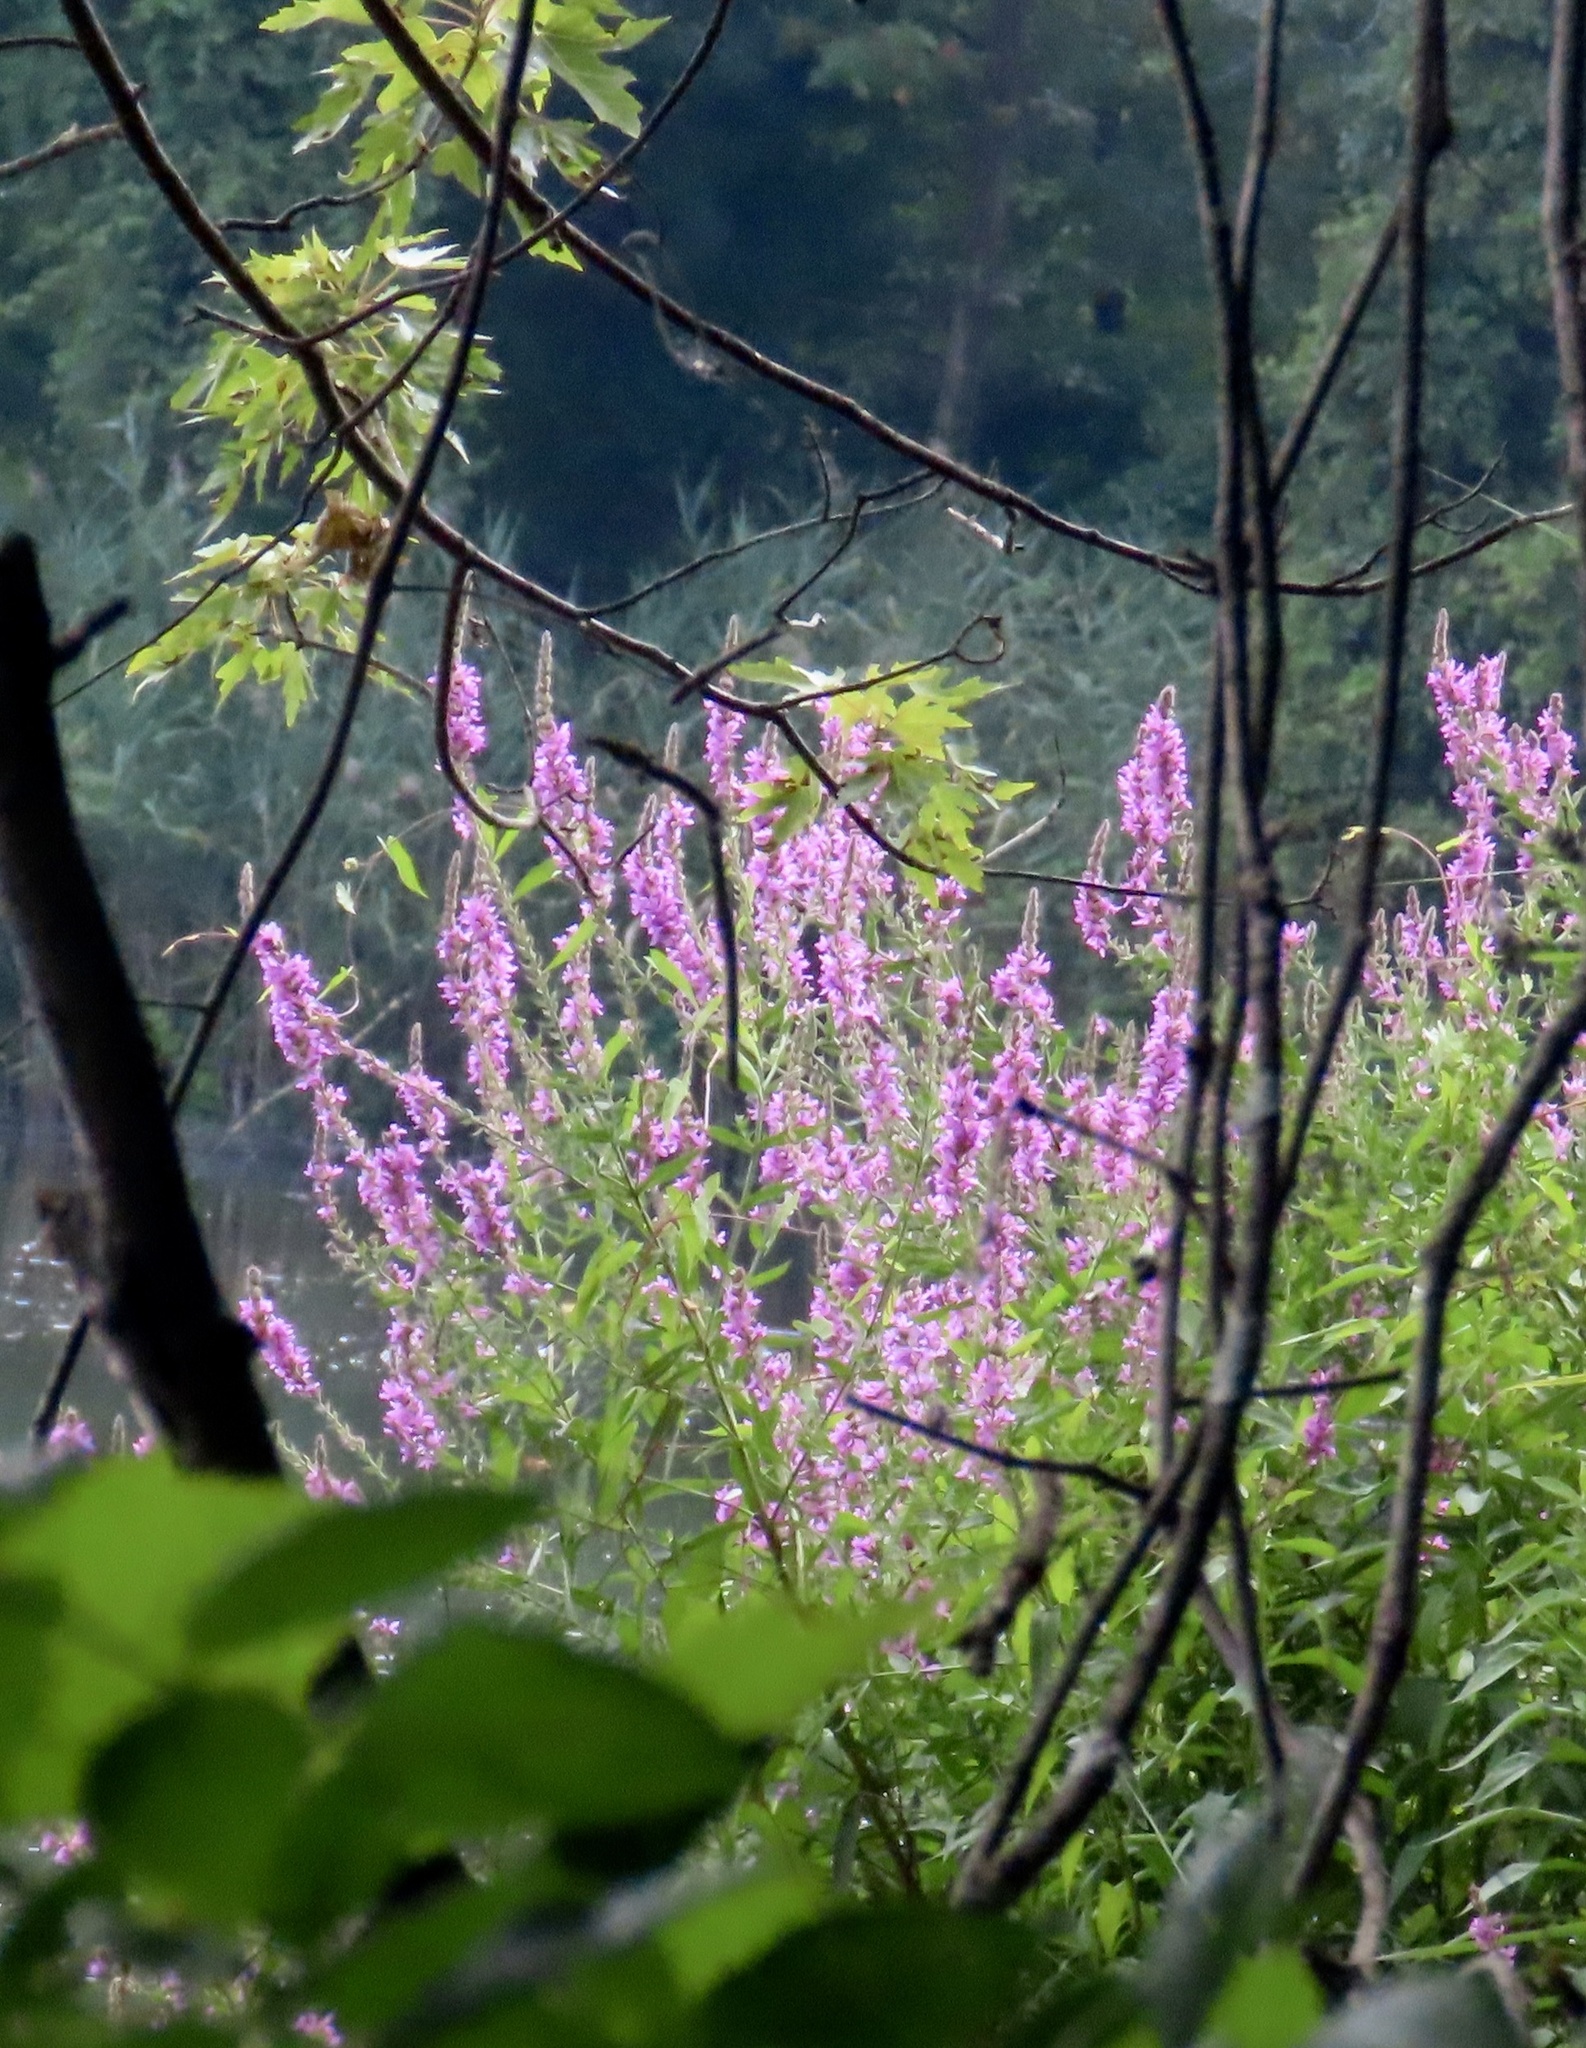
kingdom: Plantae
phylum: Tracheophyta
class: Magnoliopsida
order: Myrtales
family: Lythraceae
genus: Lythrum
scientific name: Lythrum salicaria
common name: Purple loosestrife
